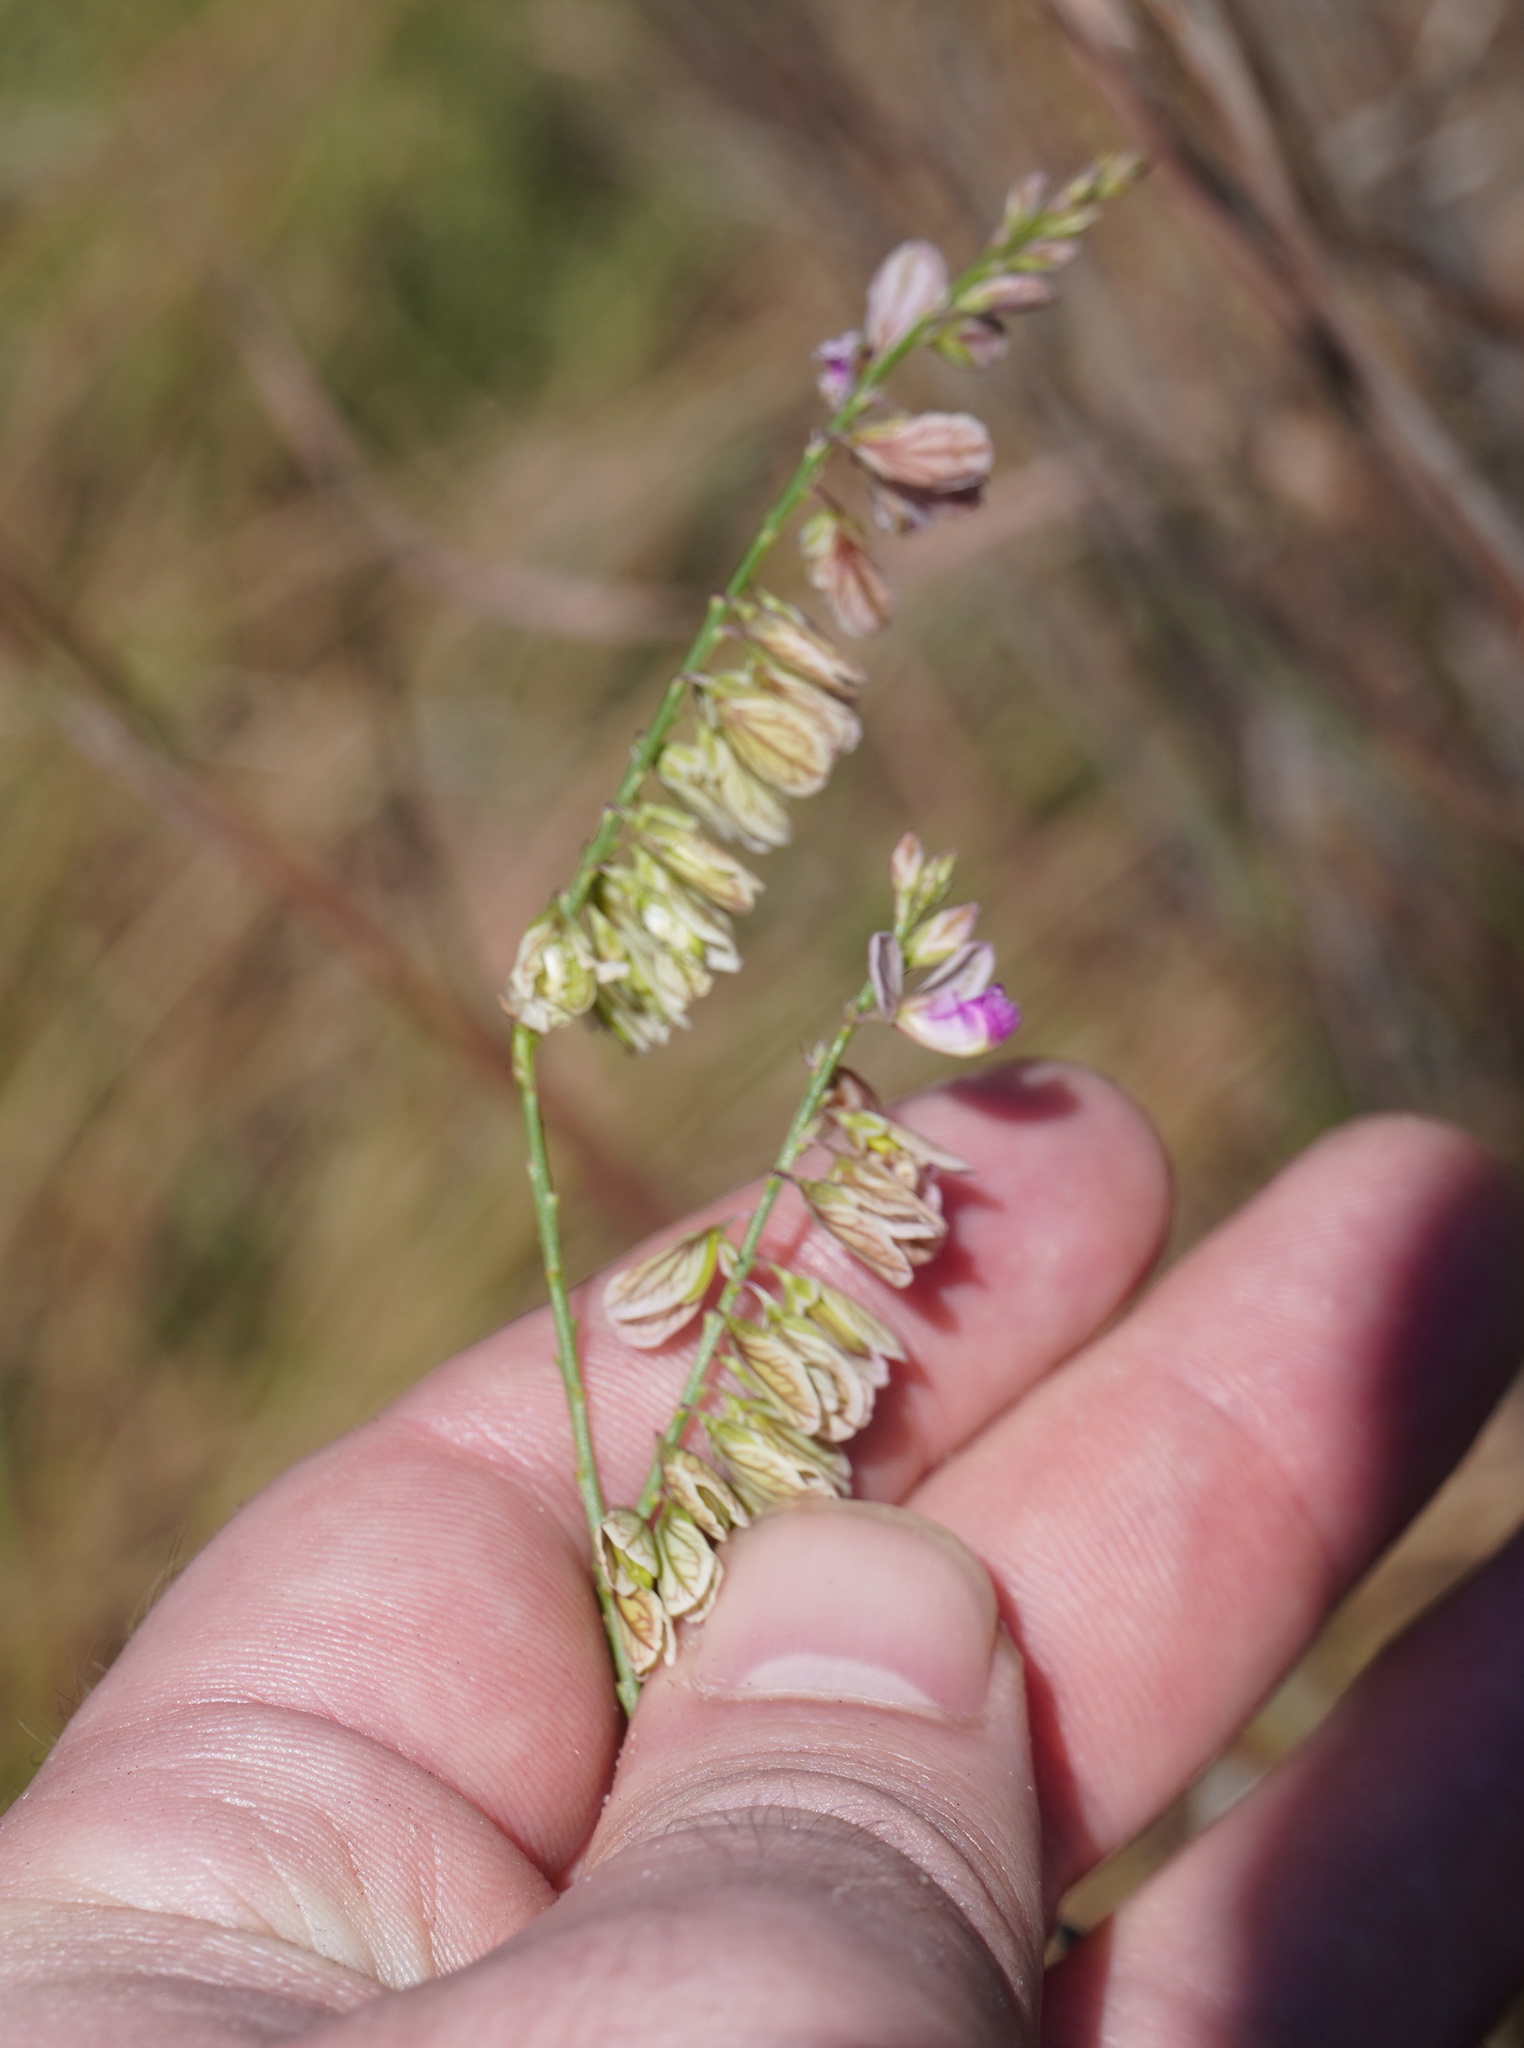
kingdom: Plantae
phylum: Tracheophyta
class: Magnoliopsida
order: Fabales
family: Polygalaceae
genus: Polygala
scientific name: Polygala hottentotta
